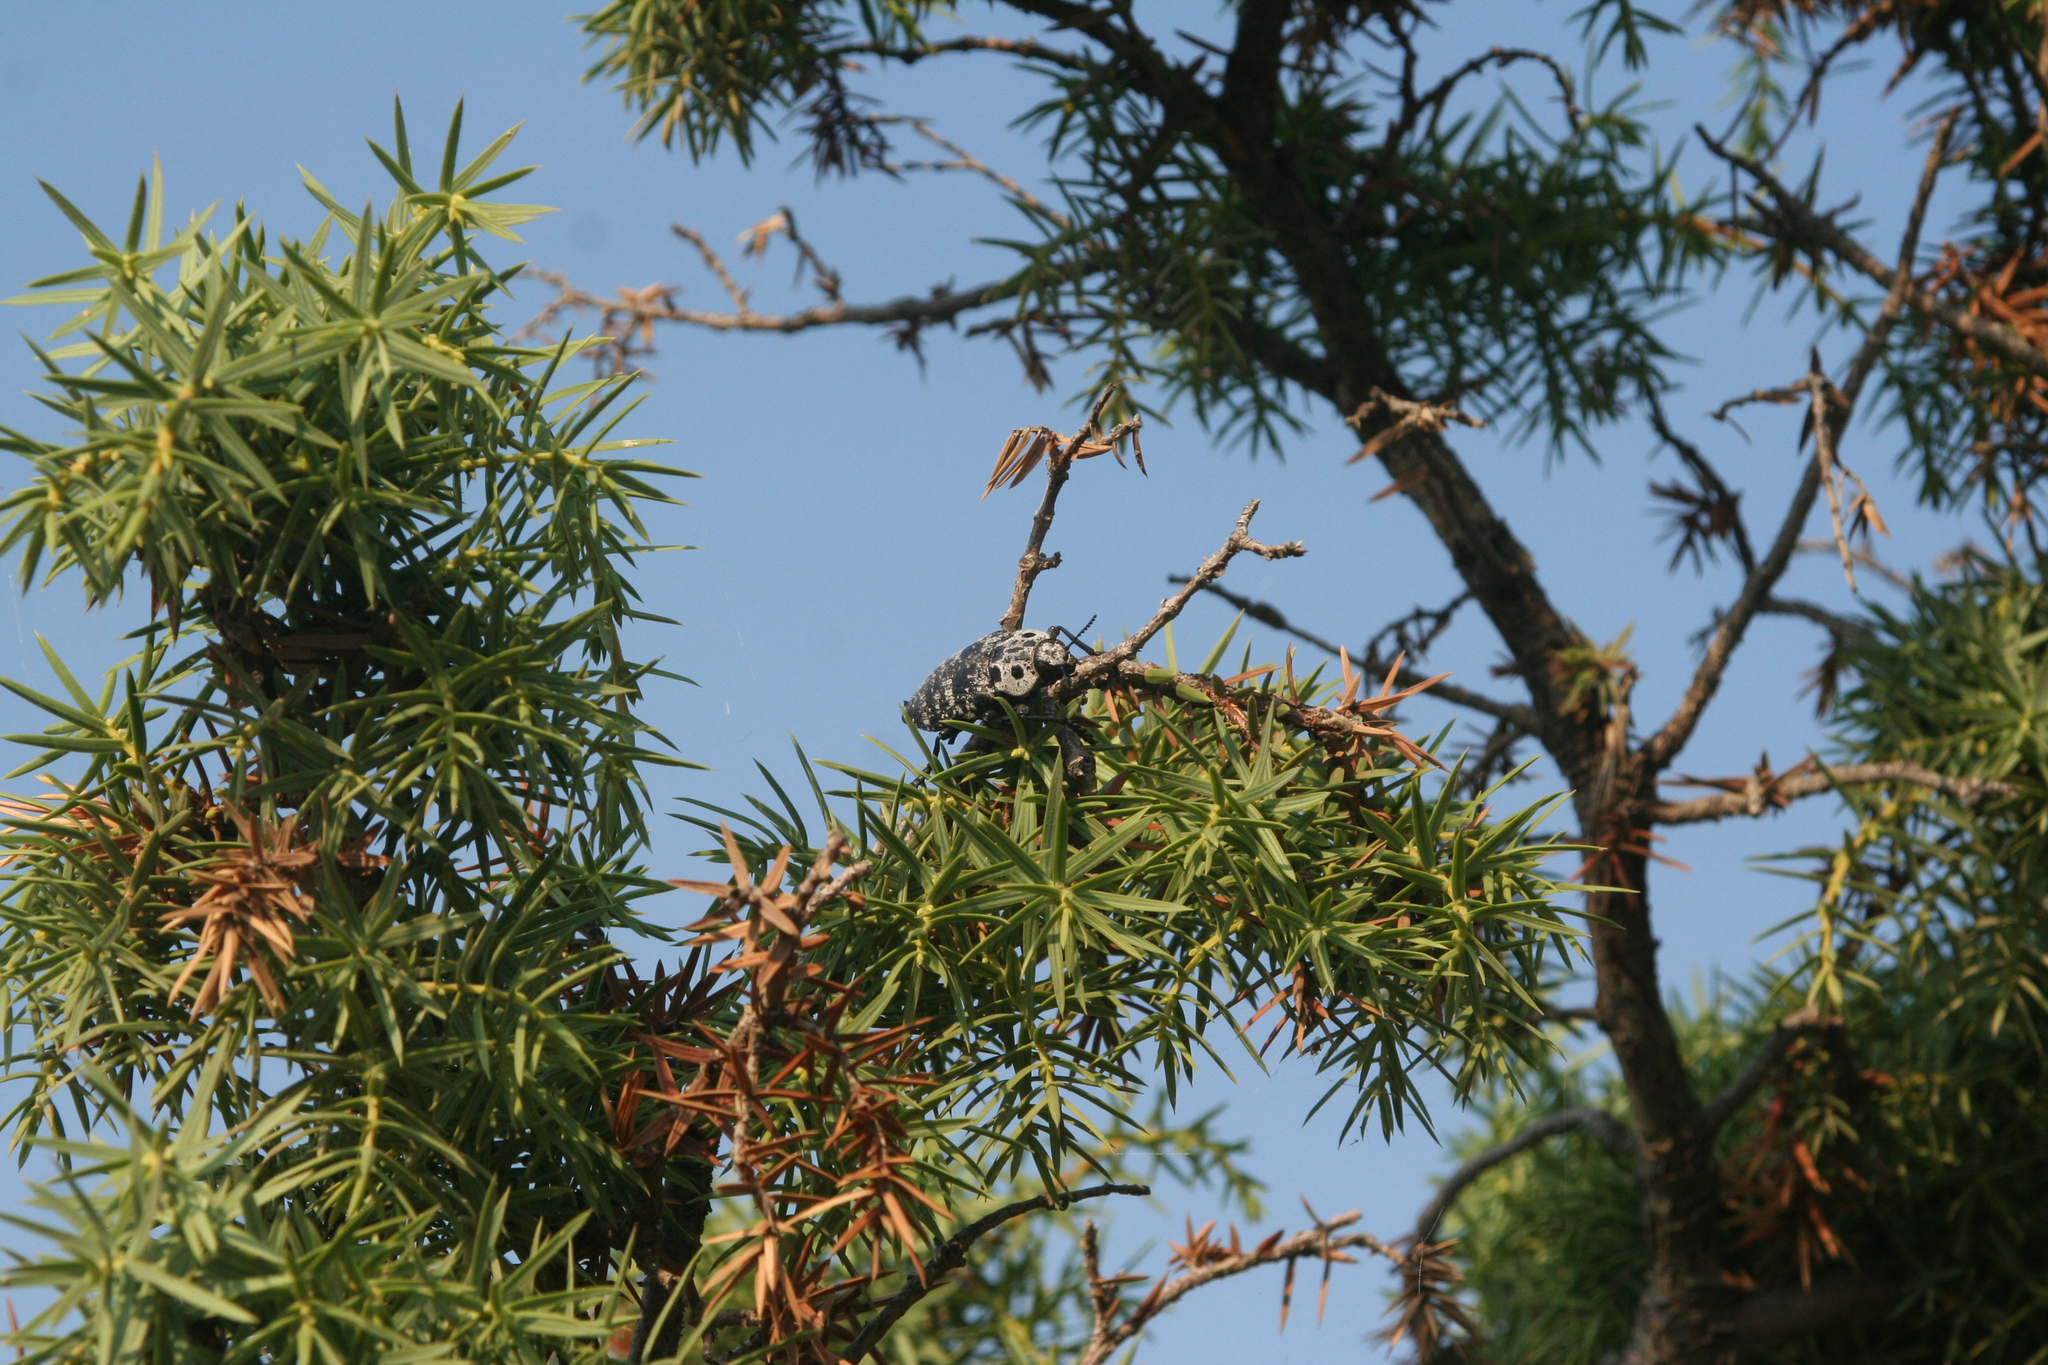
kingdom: Plantae
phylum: Tracheophyta
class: Pinopsida
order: Pinales
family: Cupressaceae
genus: Juniperus
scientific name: Juniperus oxycedrus
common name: Prickly juniper
